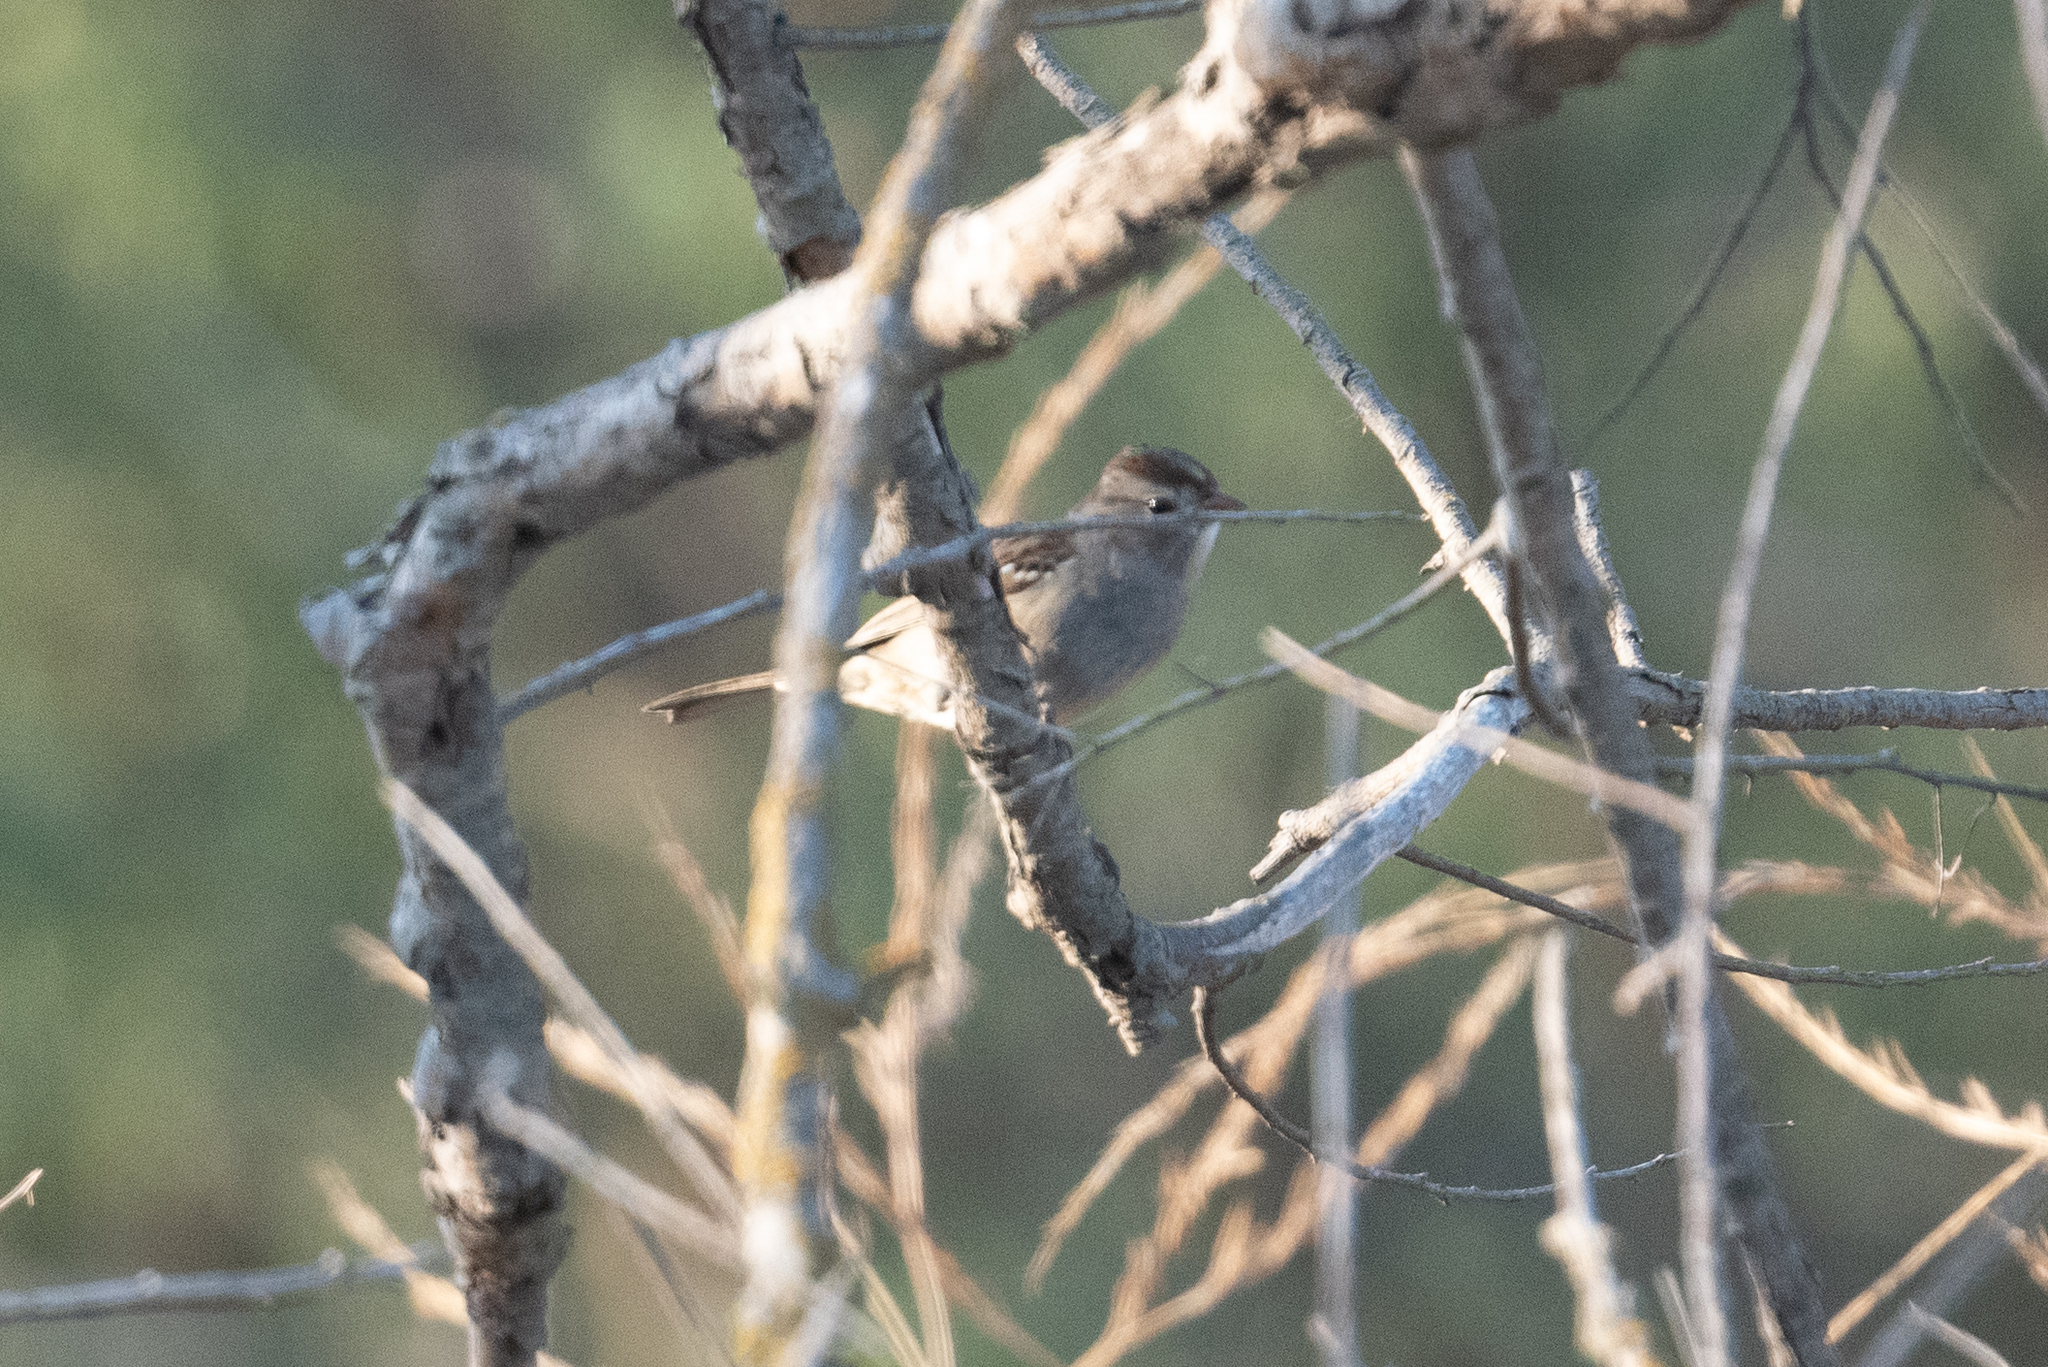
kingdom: Animalia
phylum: Chordata
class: Aves
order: Passeriformes
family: Passerellidae
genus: Zonotrichia
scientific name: Zonotrichia leucophrys
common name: White-crowned sparrow
